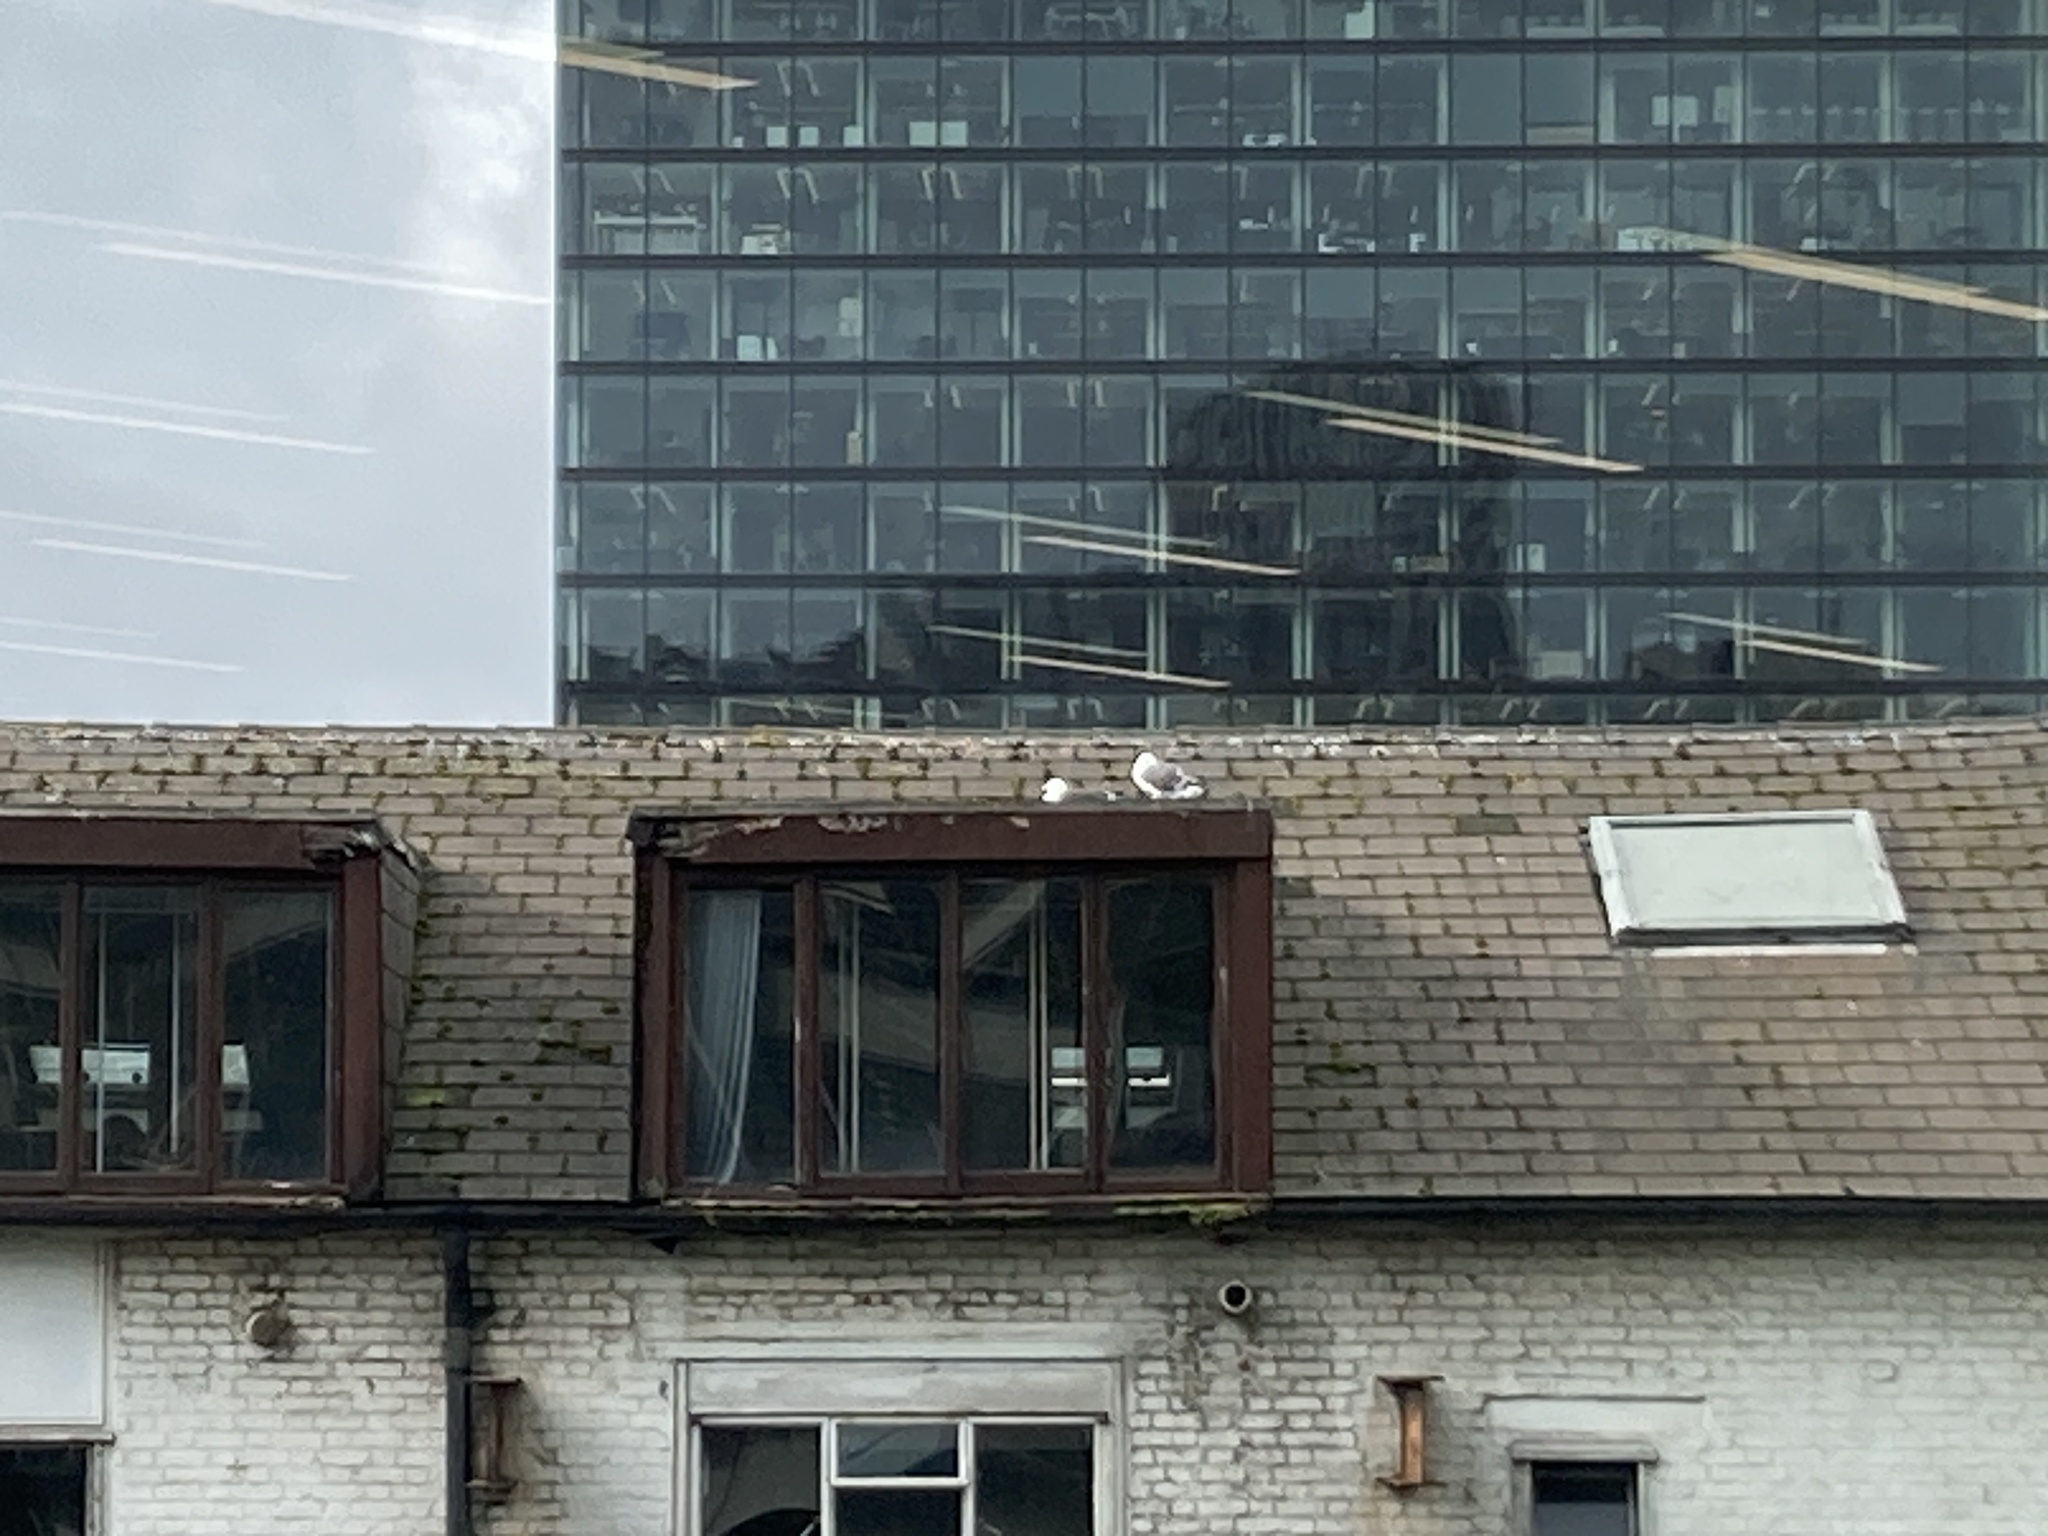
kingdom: Animalia
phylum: Chordata
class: Aves
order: Charadriiformes
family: Laridae
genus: Larus
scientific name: Larus fuscus
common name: Lesser black-backed gull
